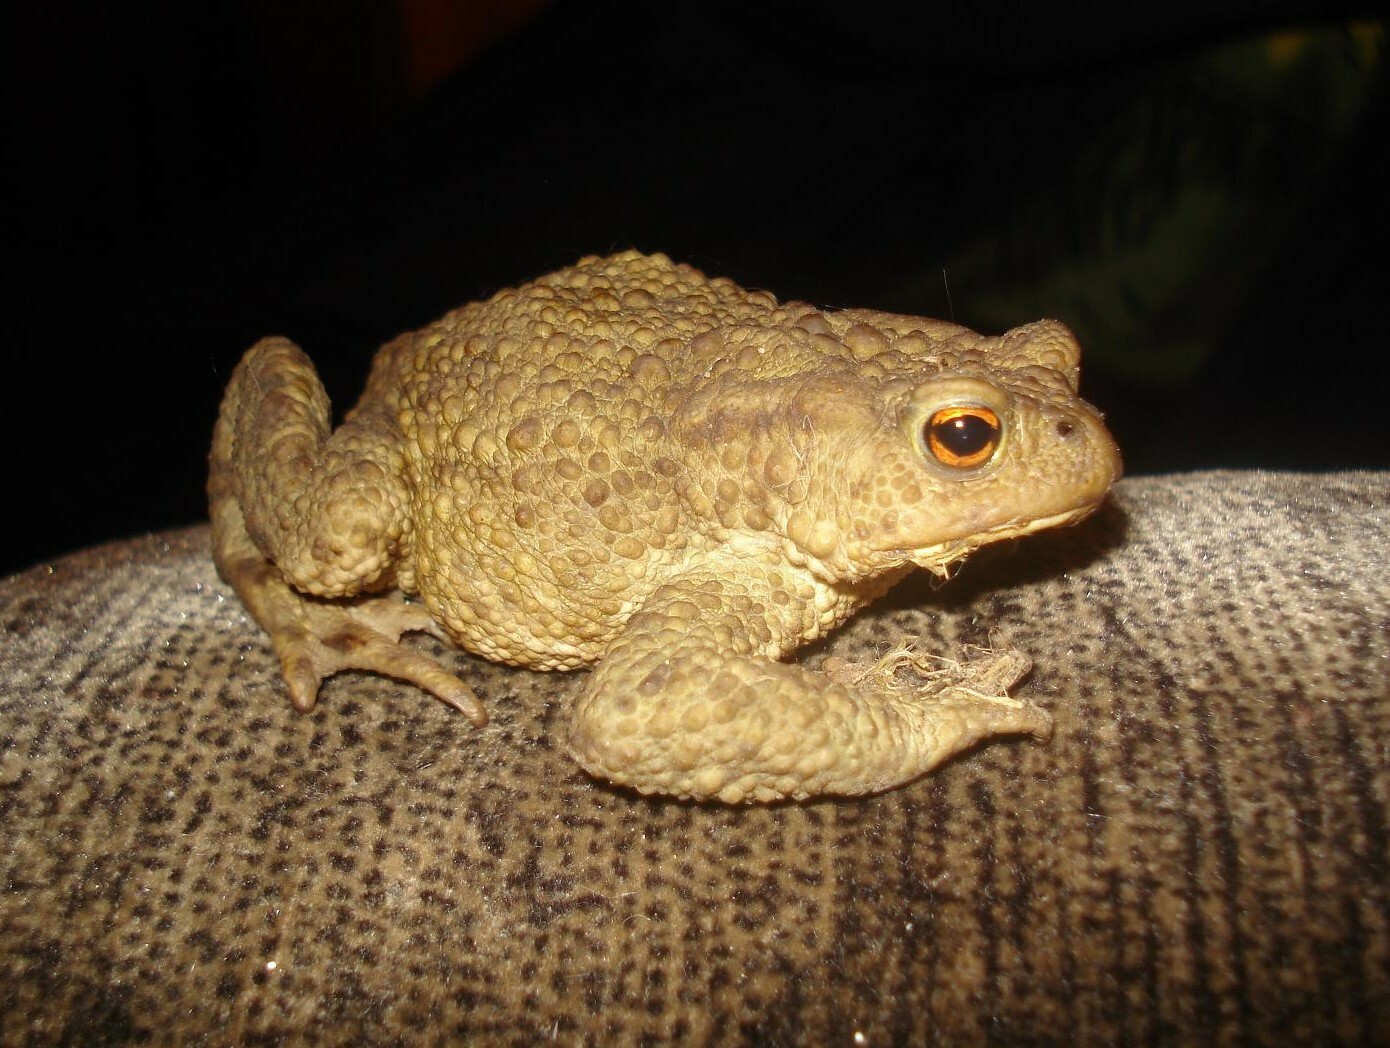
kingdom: Animalia
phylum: Chordata
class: Amphibia
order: Anura
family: Bufonidae
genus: Bufo
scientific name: Bufo bufo
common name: Common toad
